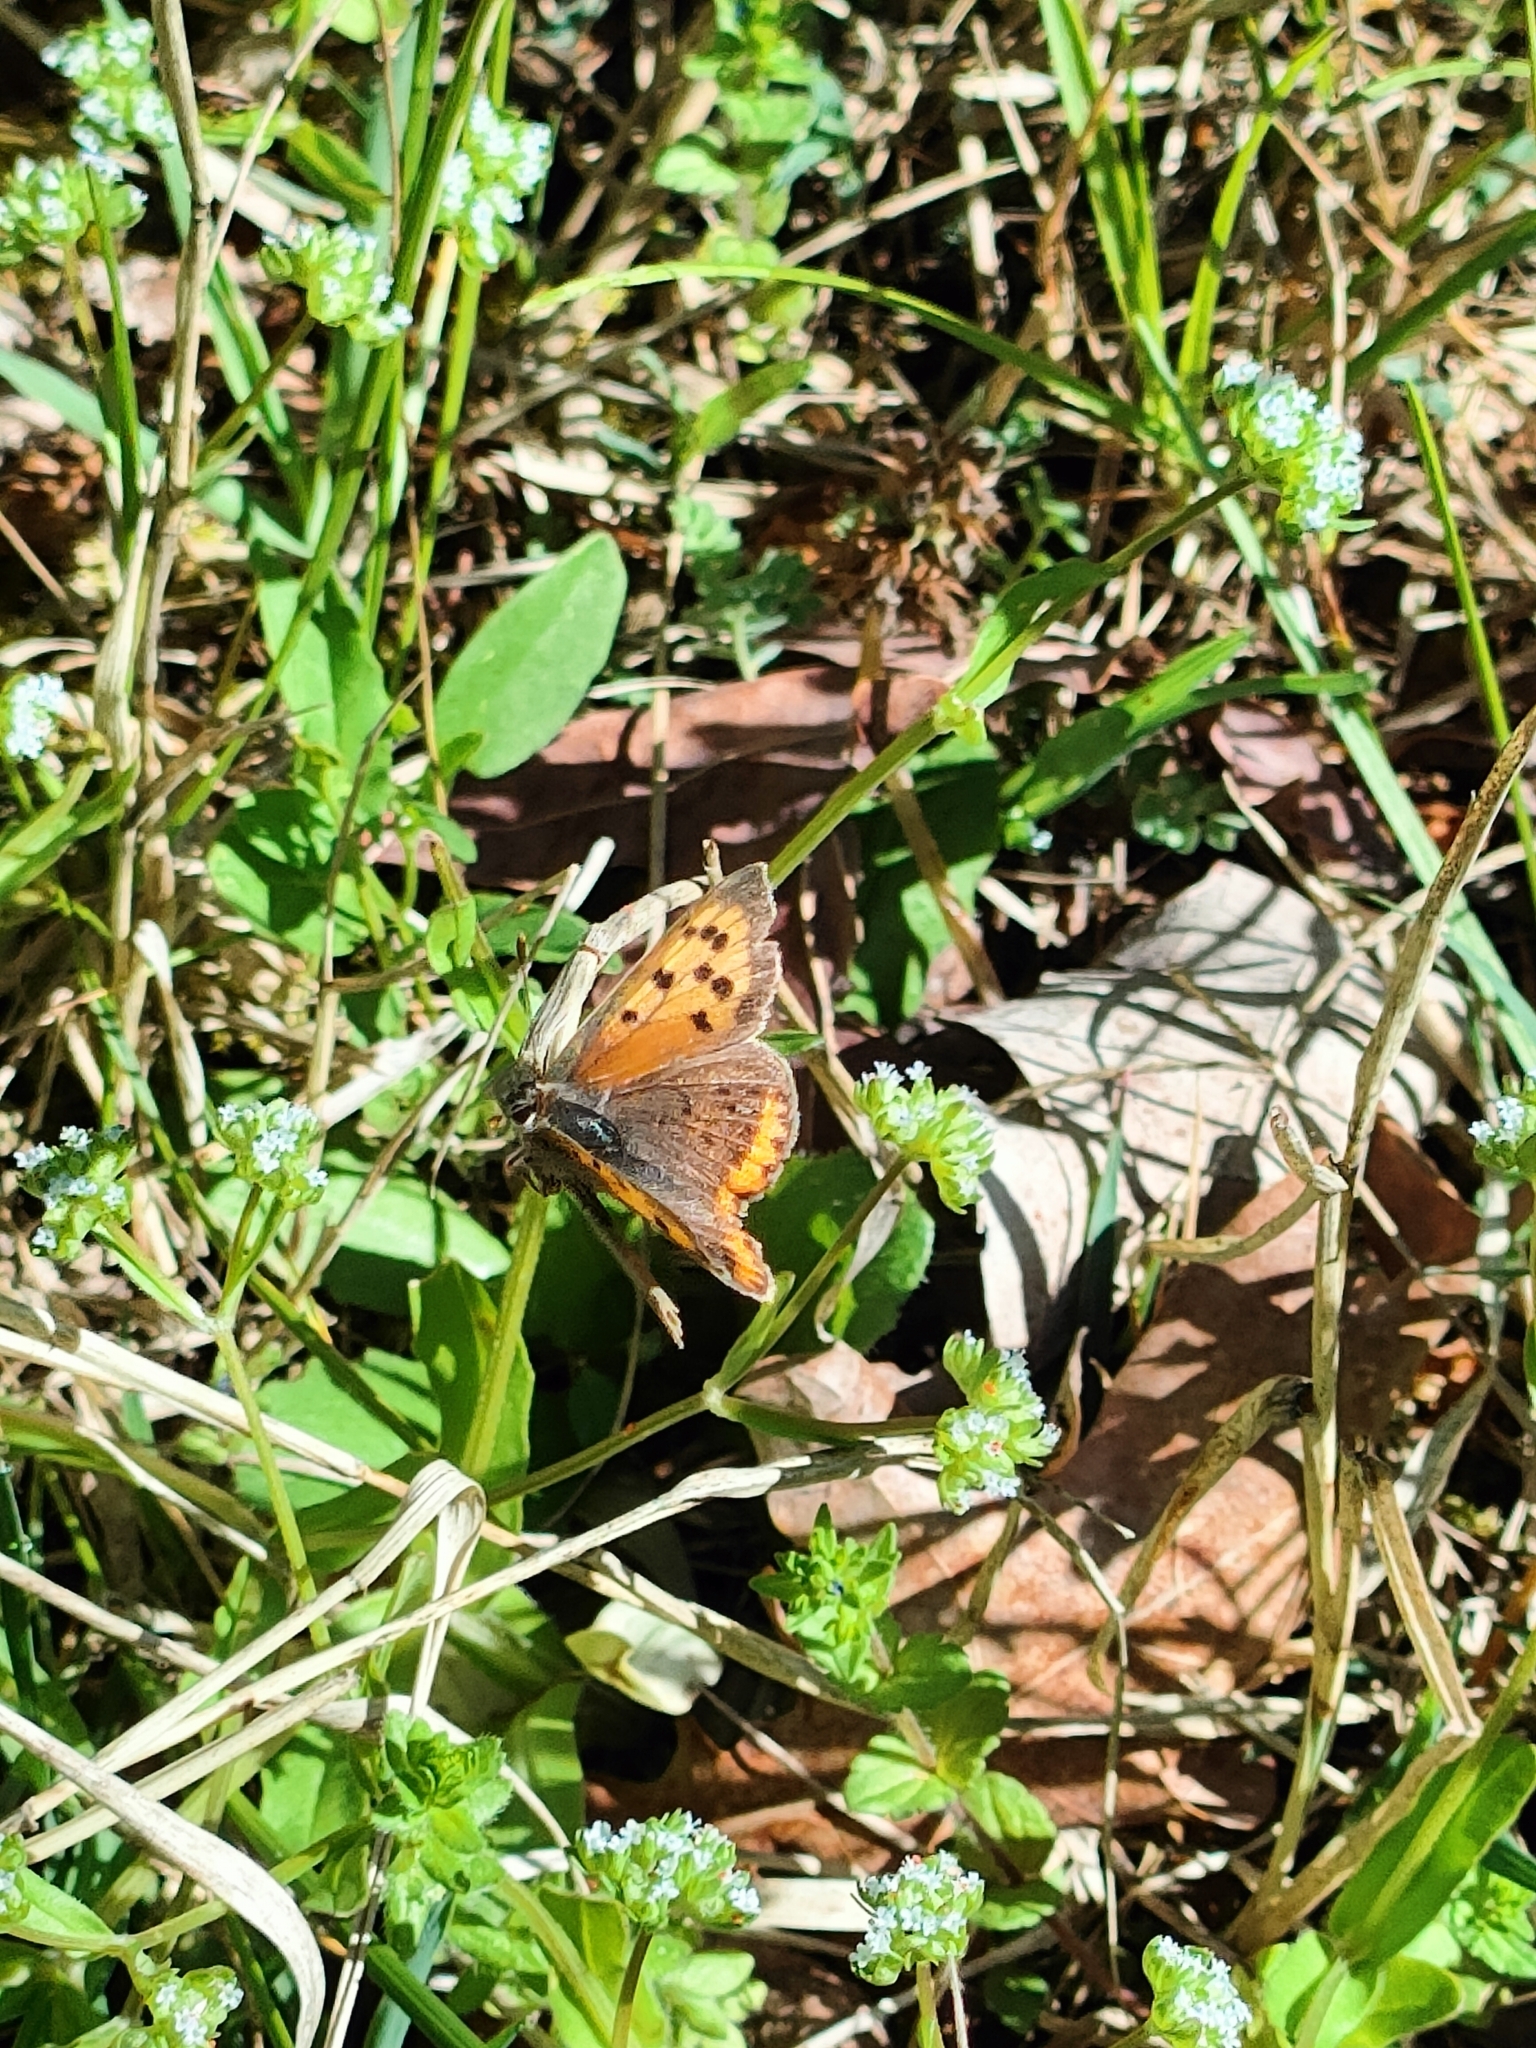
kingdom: Animalia
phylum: Arthropoda
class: Insecta
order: Lepidoptera
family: Lycaenidae
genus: Lycaena
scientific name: Lycaena phlaeas
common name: Small copper
